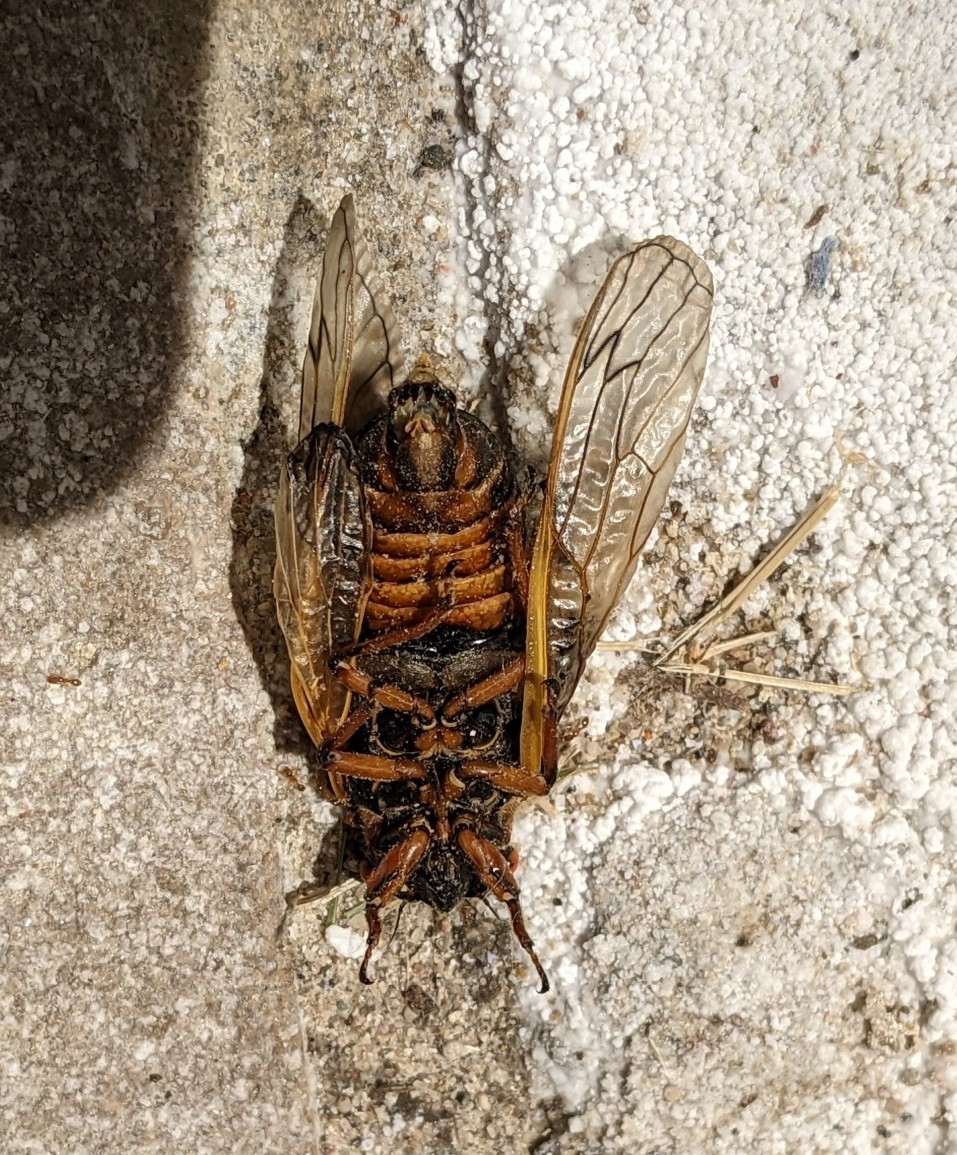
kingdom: Animalia
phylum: Arthropoda
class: Insecta
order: Hemiptera
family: Cicadidae
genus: Magicicada
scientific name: Magicicada septendecim
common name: Periodical cicada
